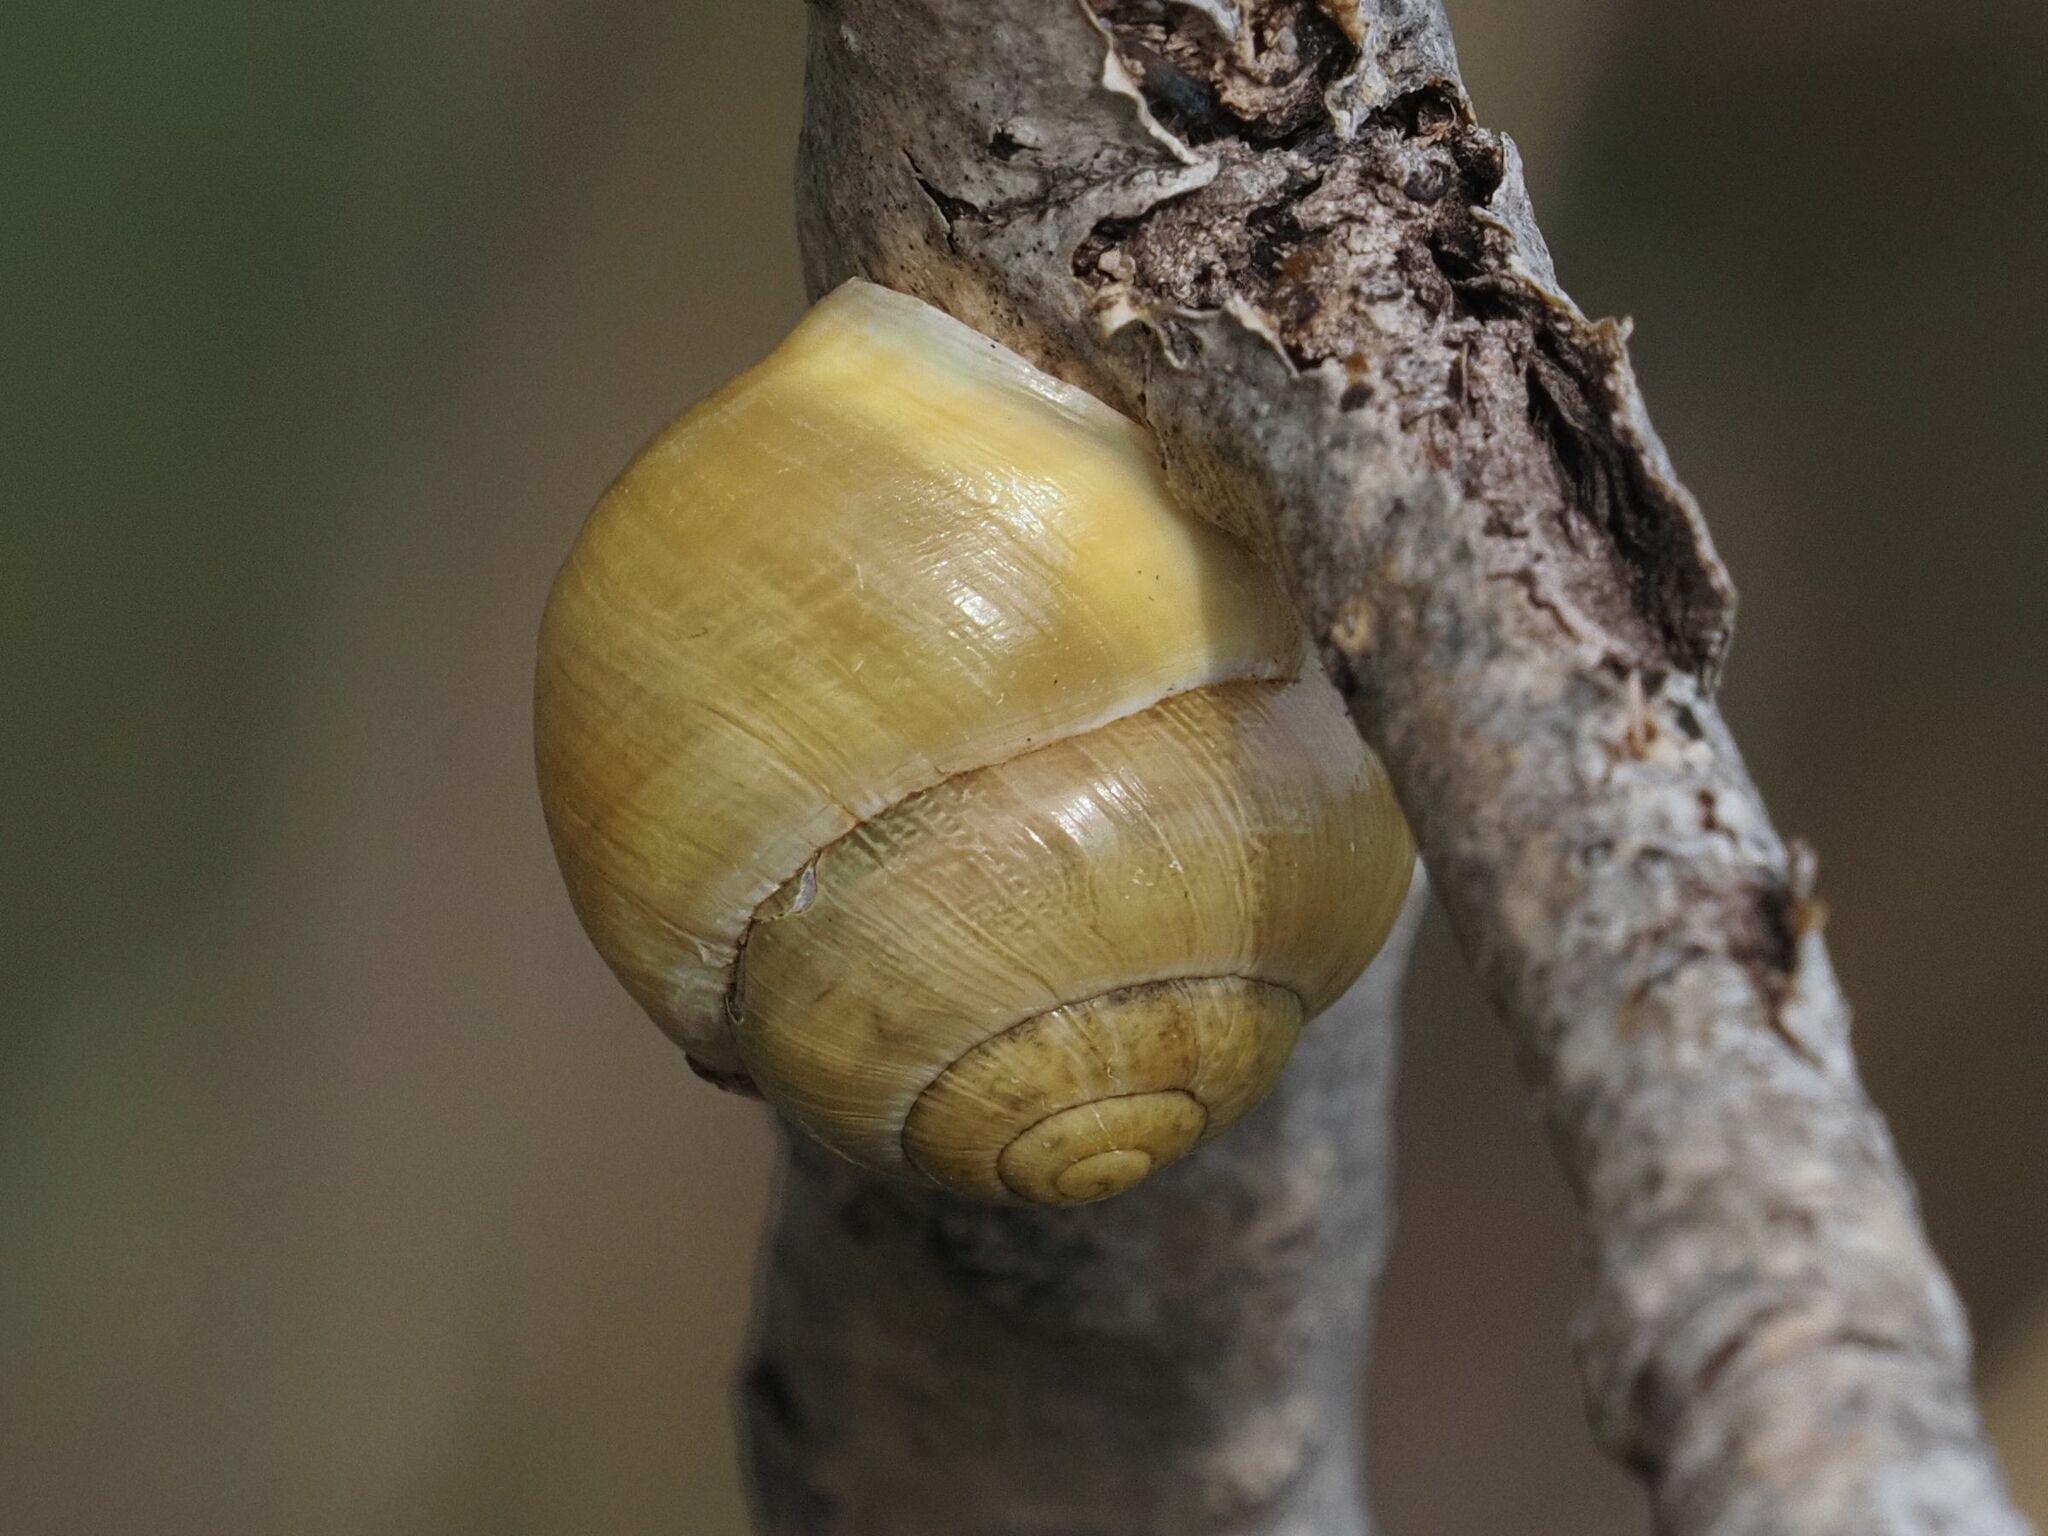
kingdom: Animalia
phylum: Mollusca
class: Gastropoda
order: Stylommatophora
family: Helicidae
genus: Cepaea
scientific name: Cepaea hortensis
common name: White-lip gardensnail
